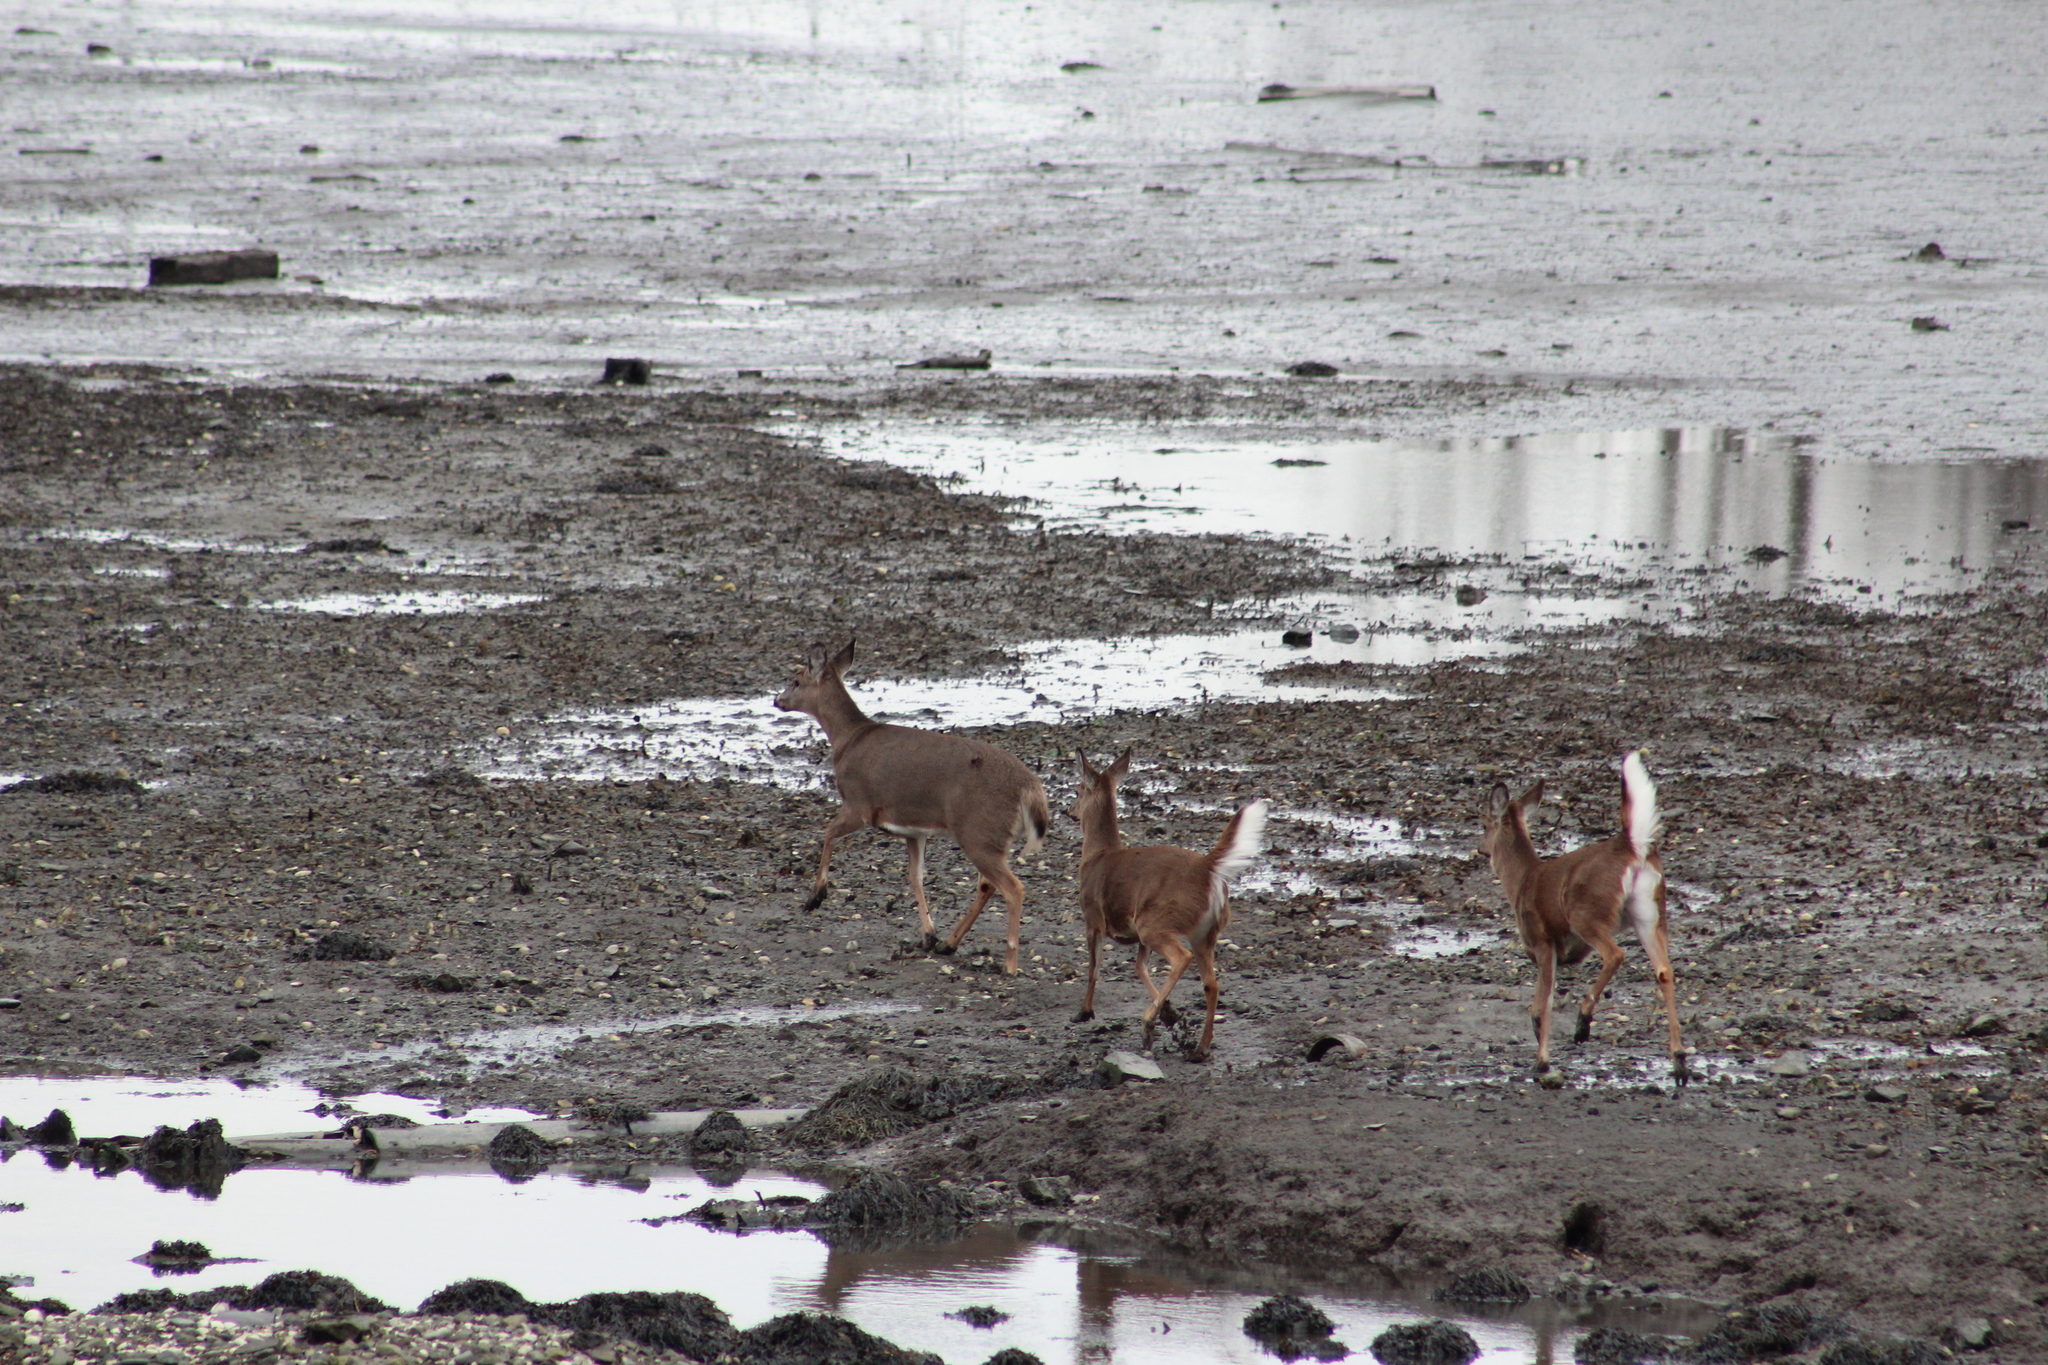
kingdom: Animalia
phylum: Chordata
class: Mammalia
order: Artiodactyla
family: Cervidae
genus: Odocoileus
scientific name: Odocoileus virginianus
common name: White-tailed deer
